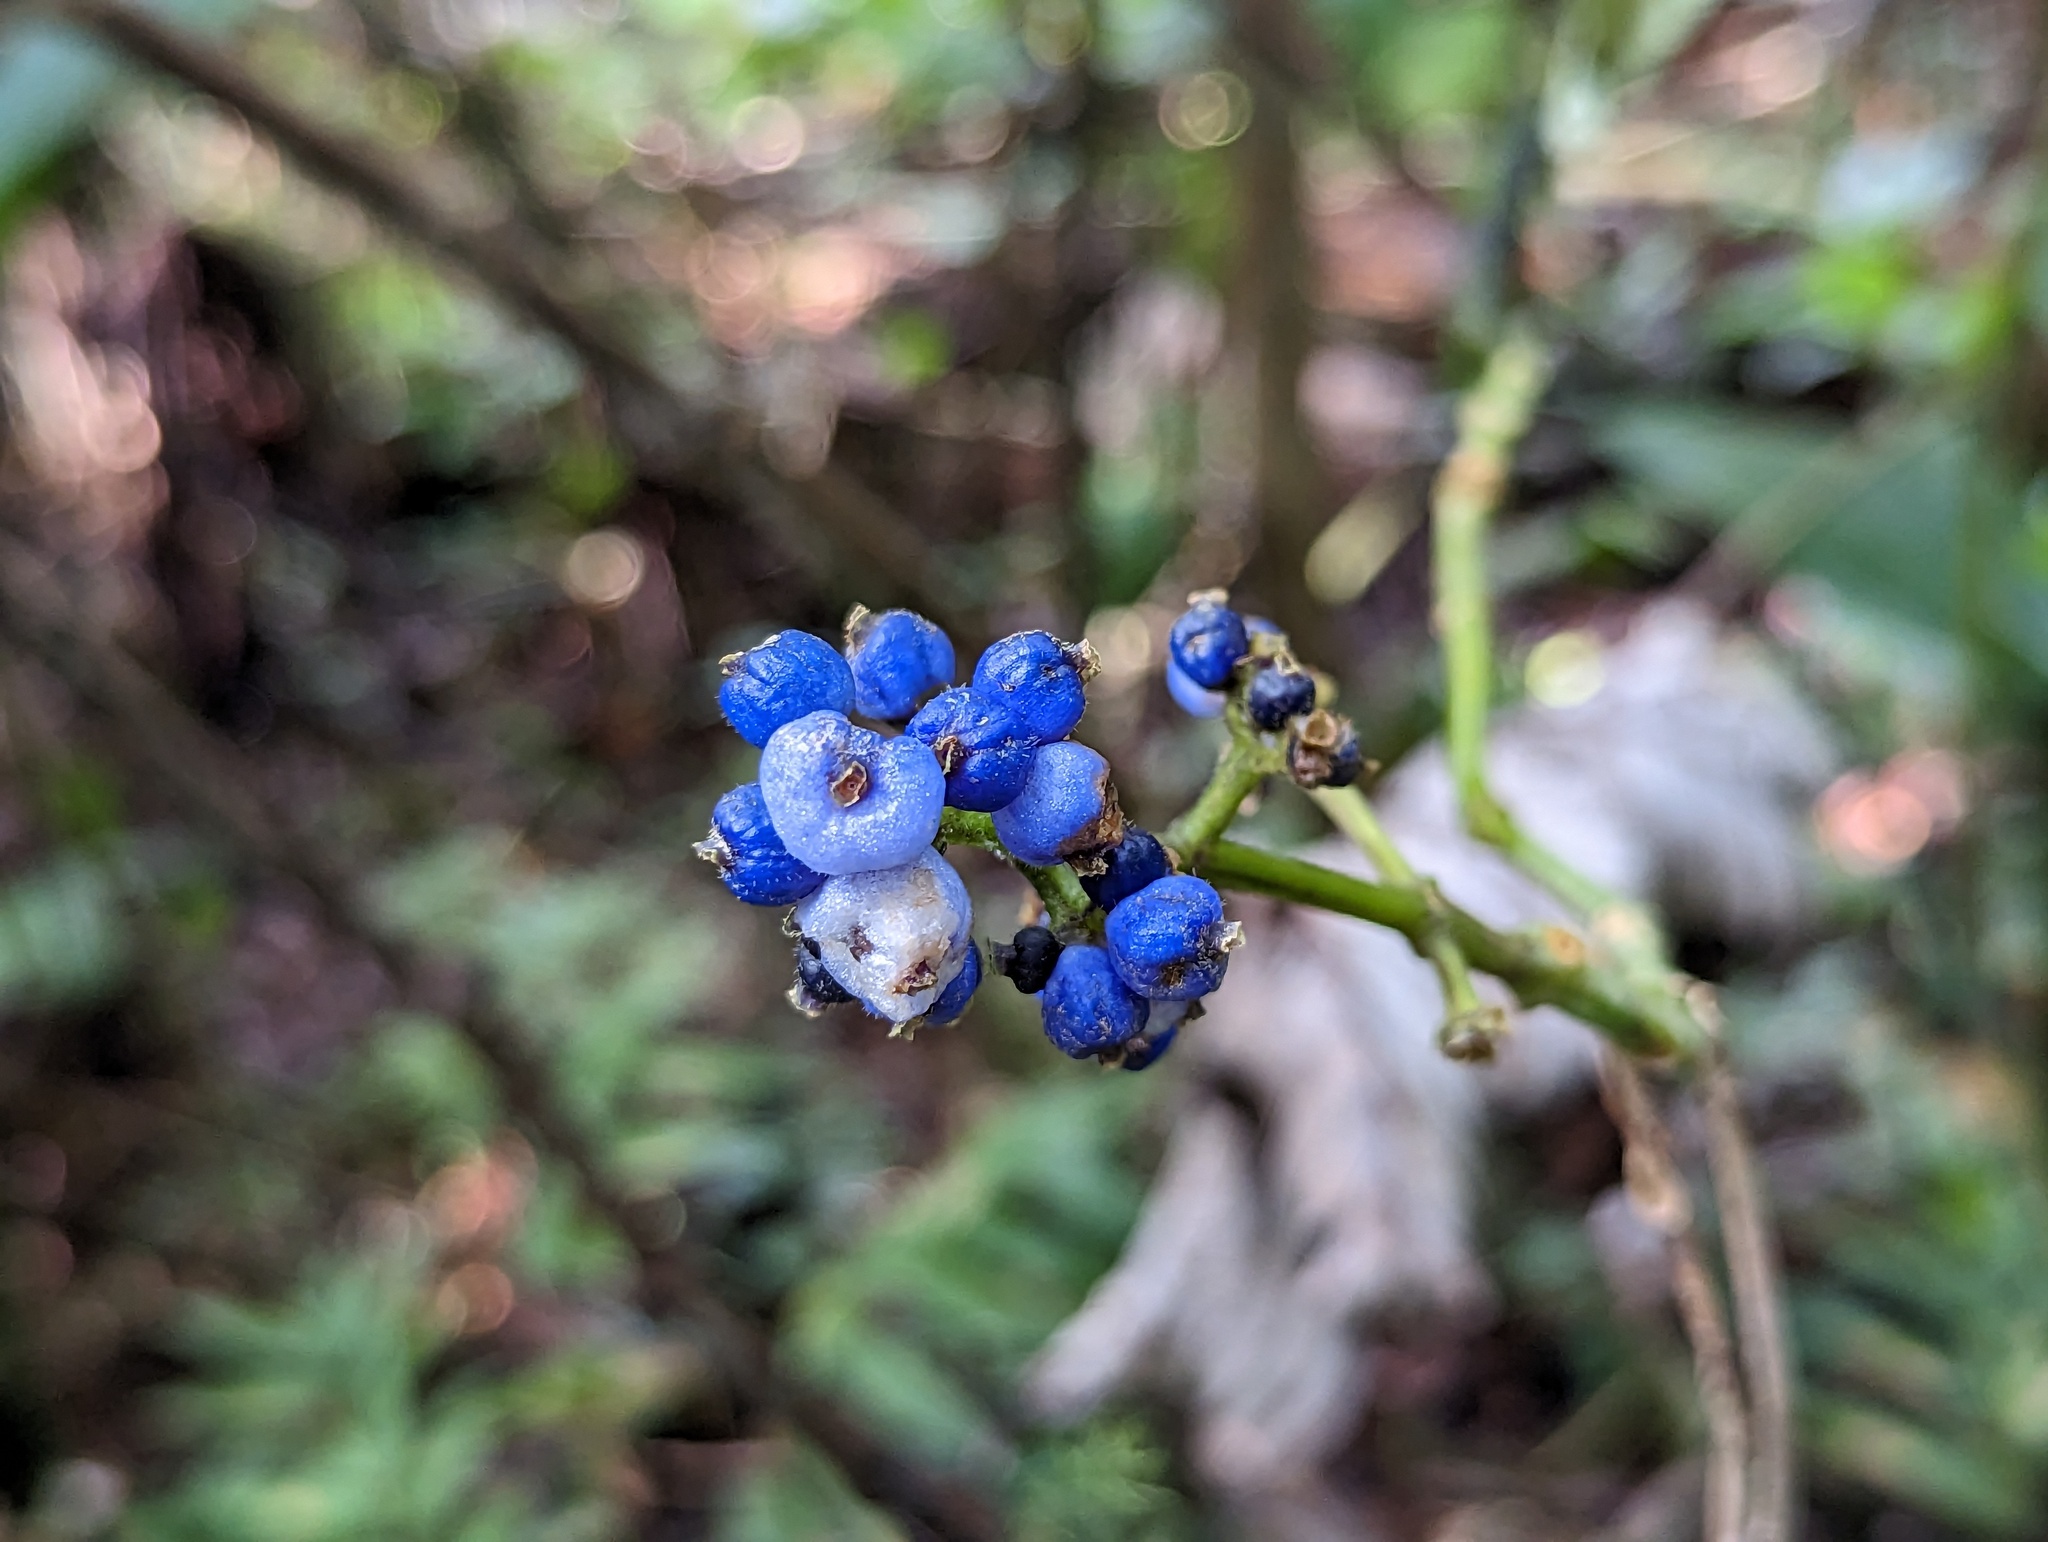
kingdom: Plantae
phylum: Tracheophyta
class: Magnoliopsida
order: Gentianales
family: Rubiaceae
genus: Palicourea
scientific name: Palicourea brachiata
